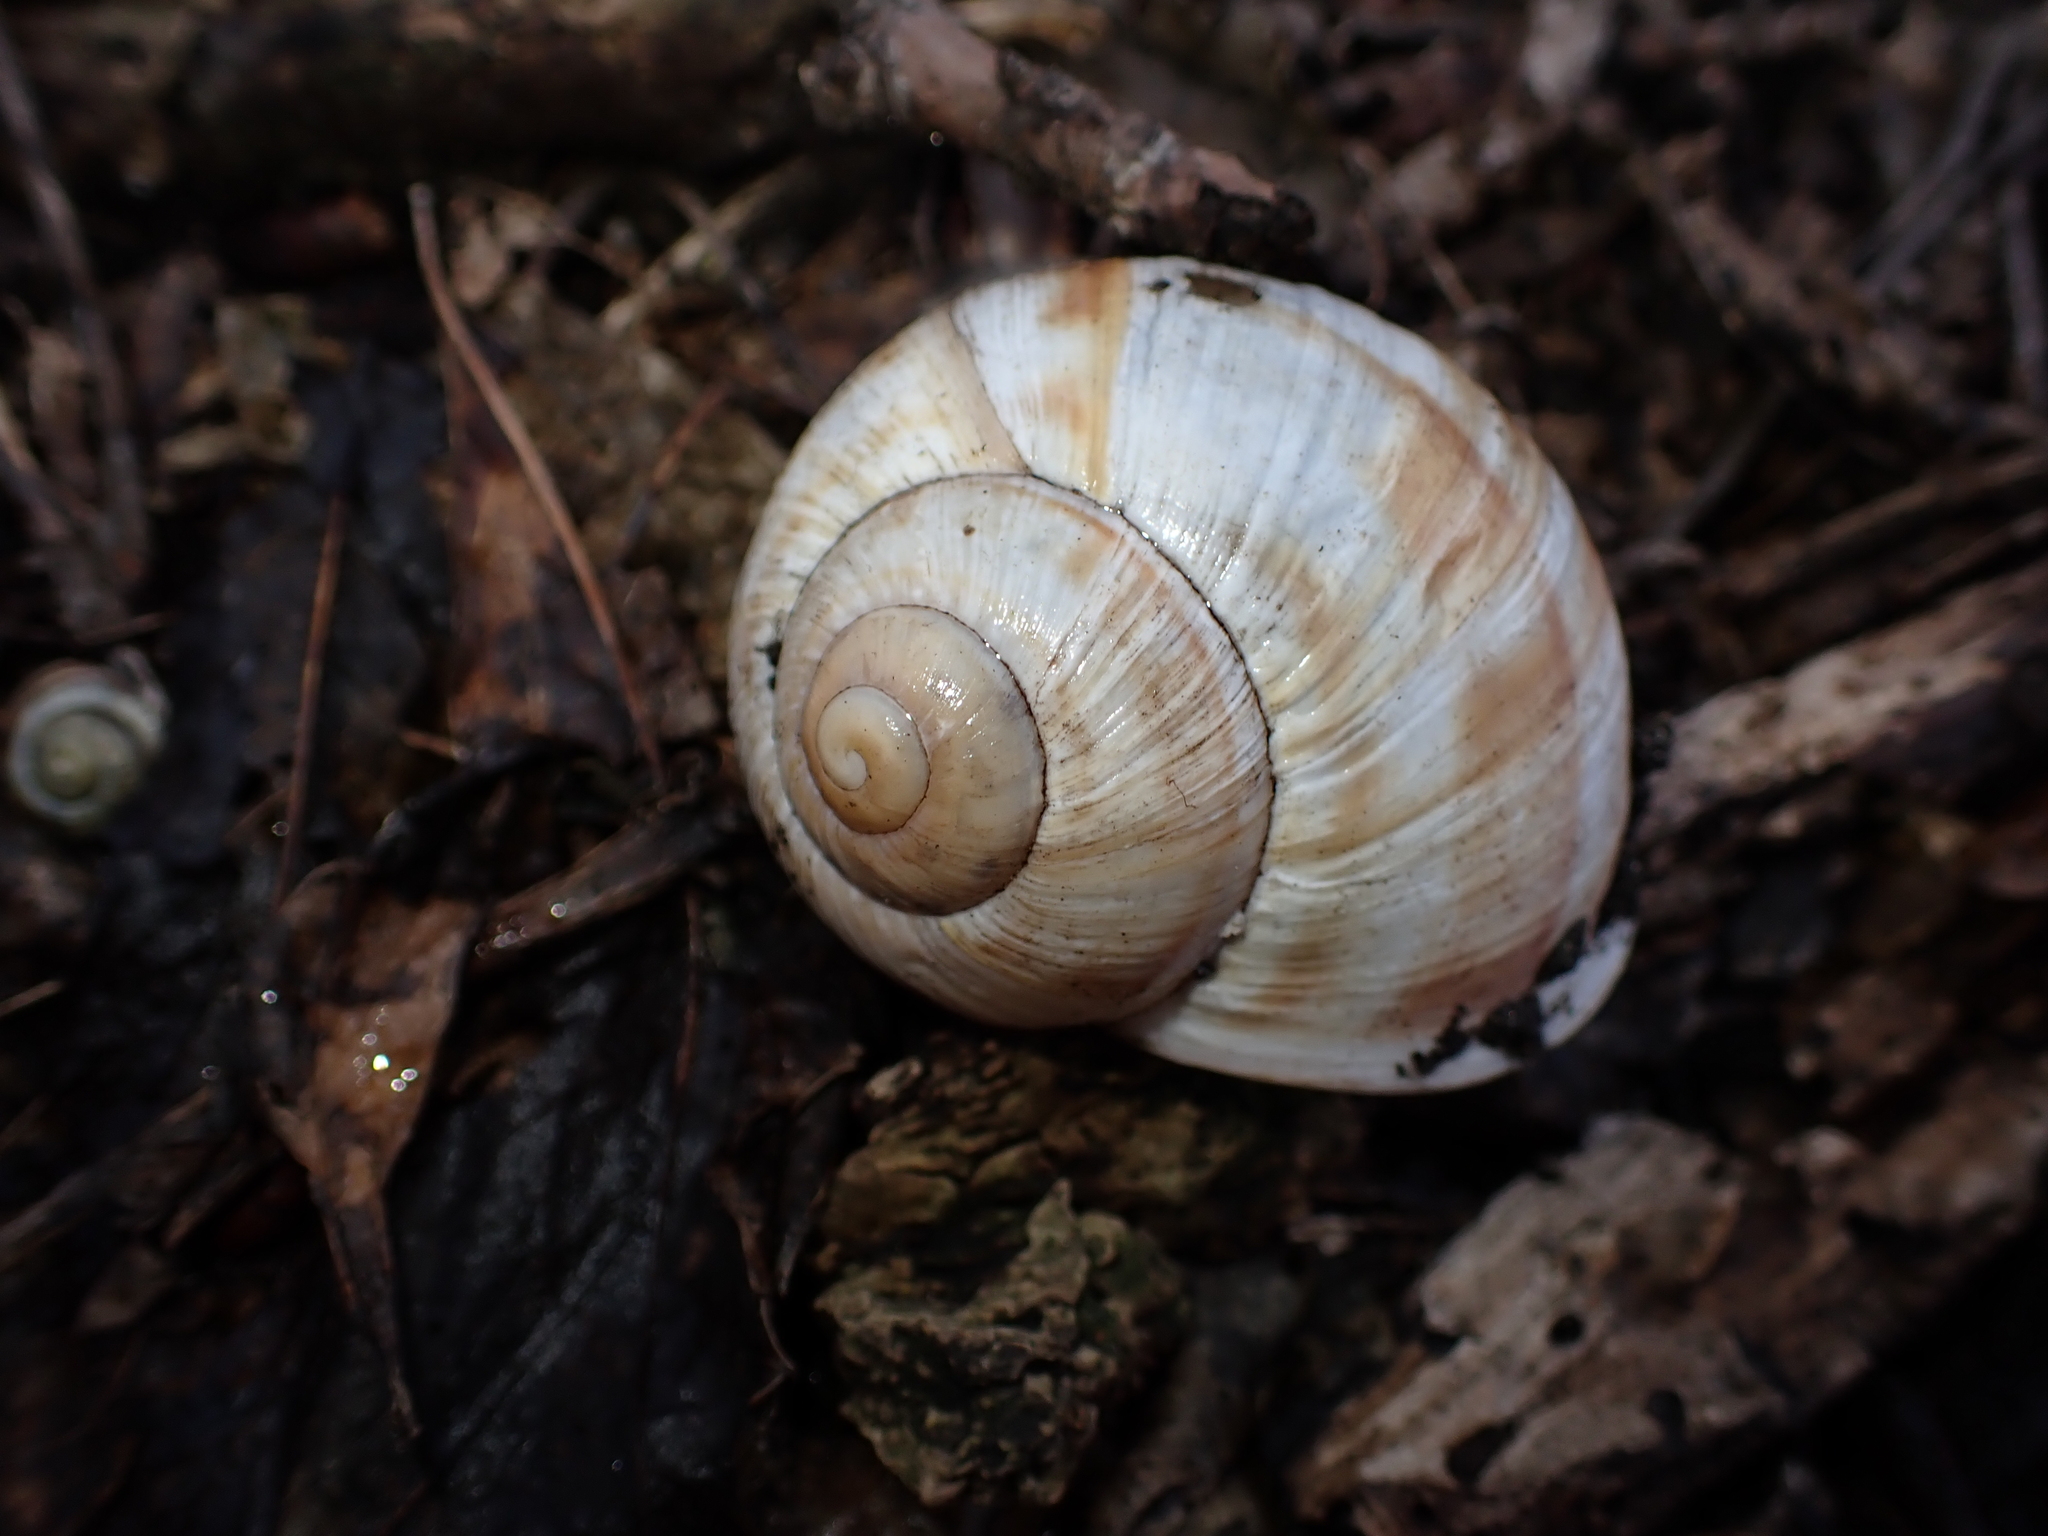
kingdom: Animalia
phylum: Mollusca
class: Gastropoda
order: Stylommatophora
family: Helicidae
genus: Helix
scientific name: Helix pomatia
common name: Roman snail
